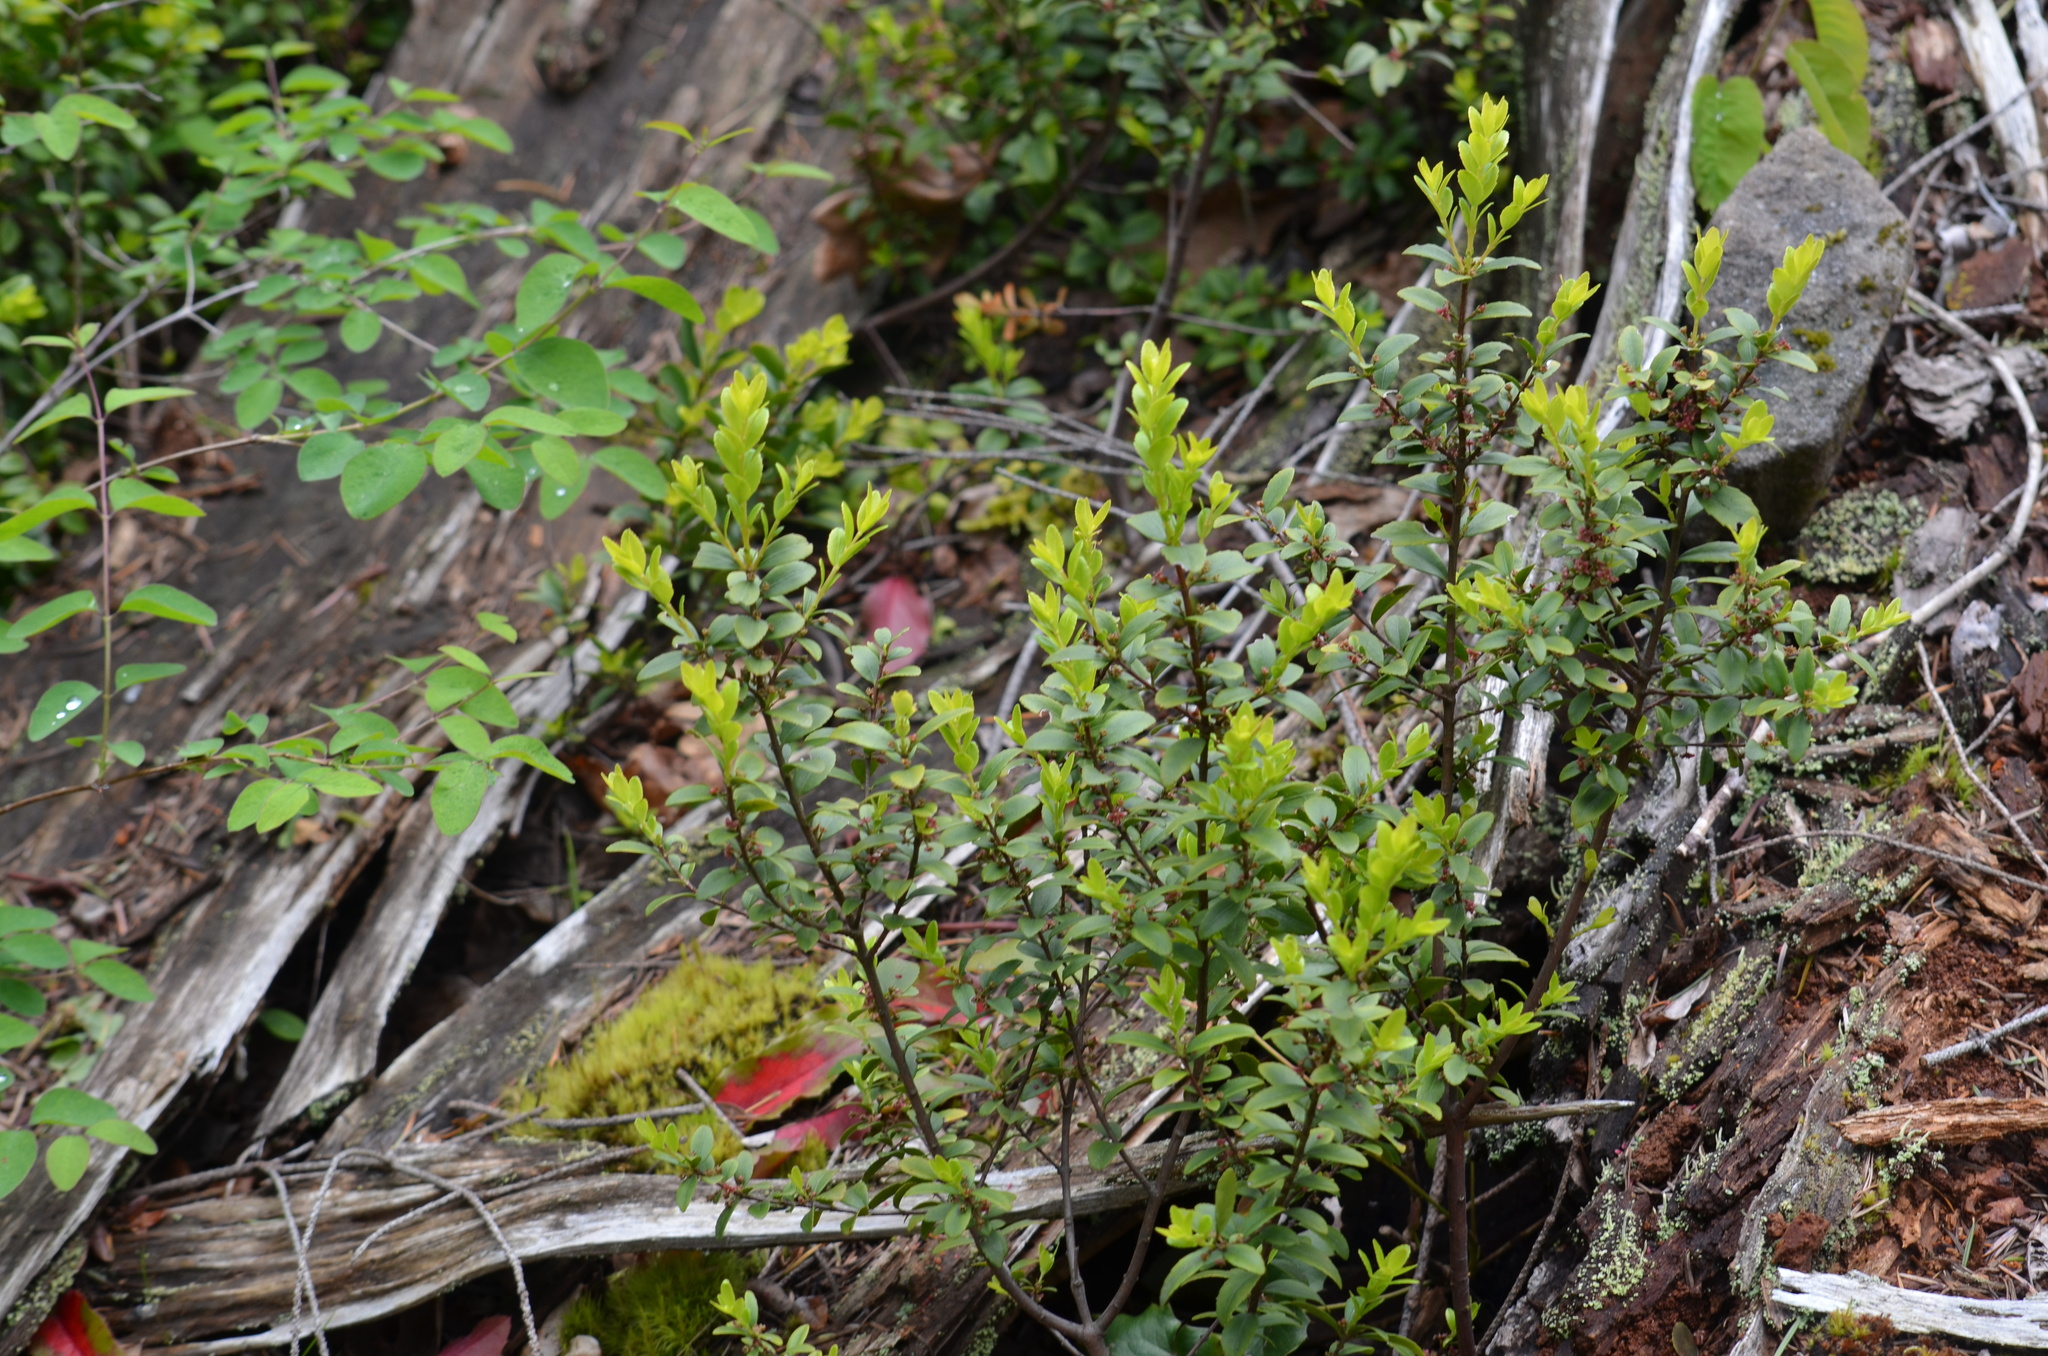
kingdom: Plantae
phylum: Tracheophyta
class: Magnoliopsida
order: Celastrales
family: Celastraceae
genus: Paxistima
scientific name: Paxistima myrsinites
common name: Mountain-lover
